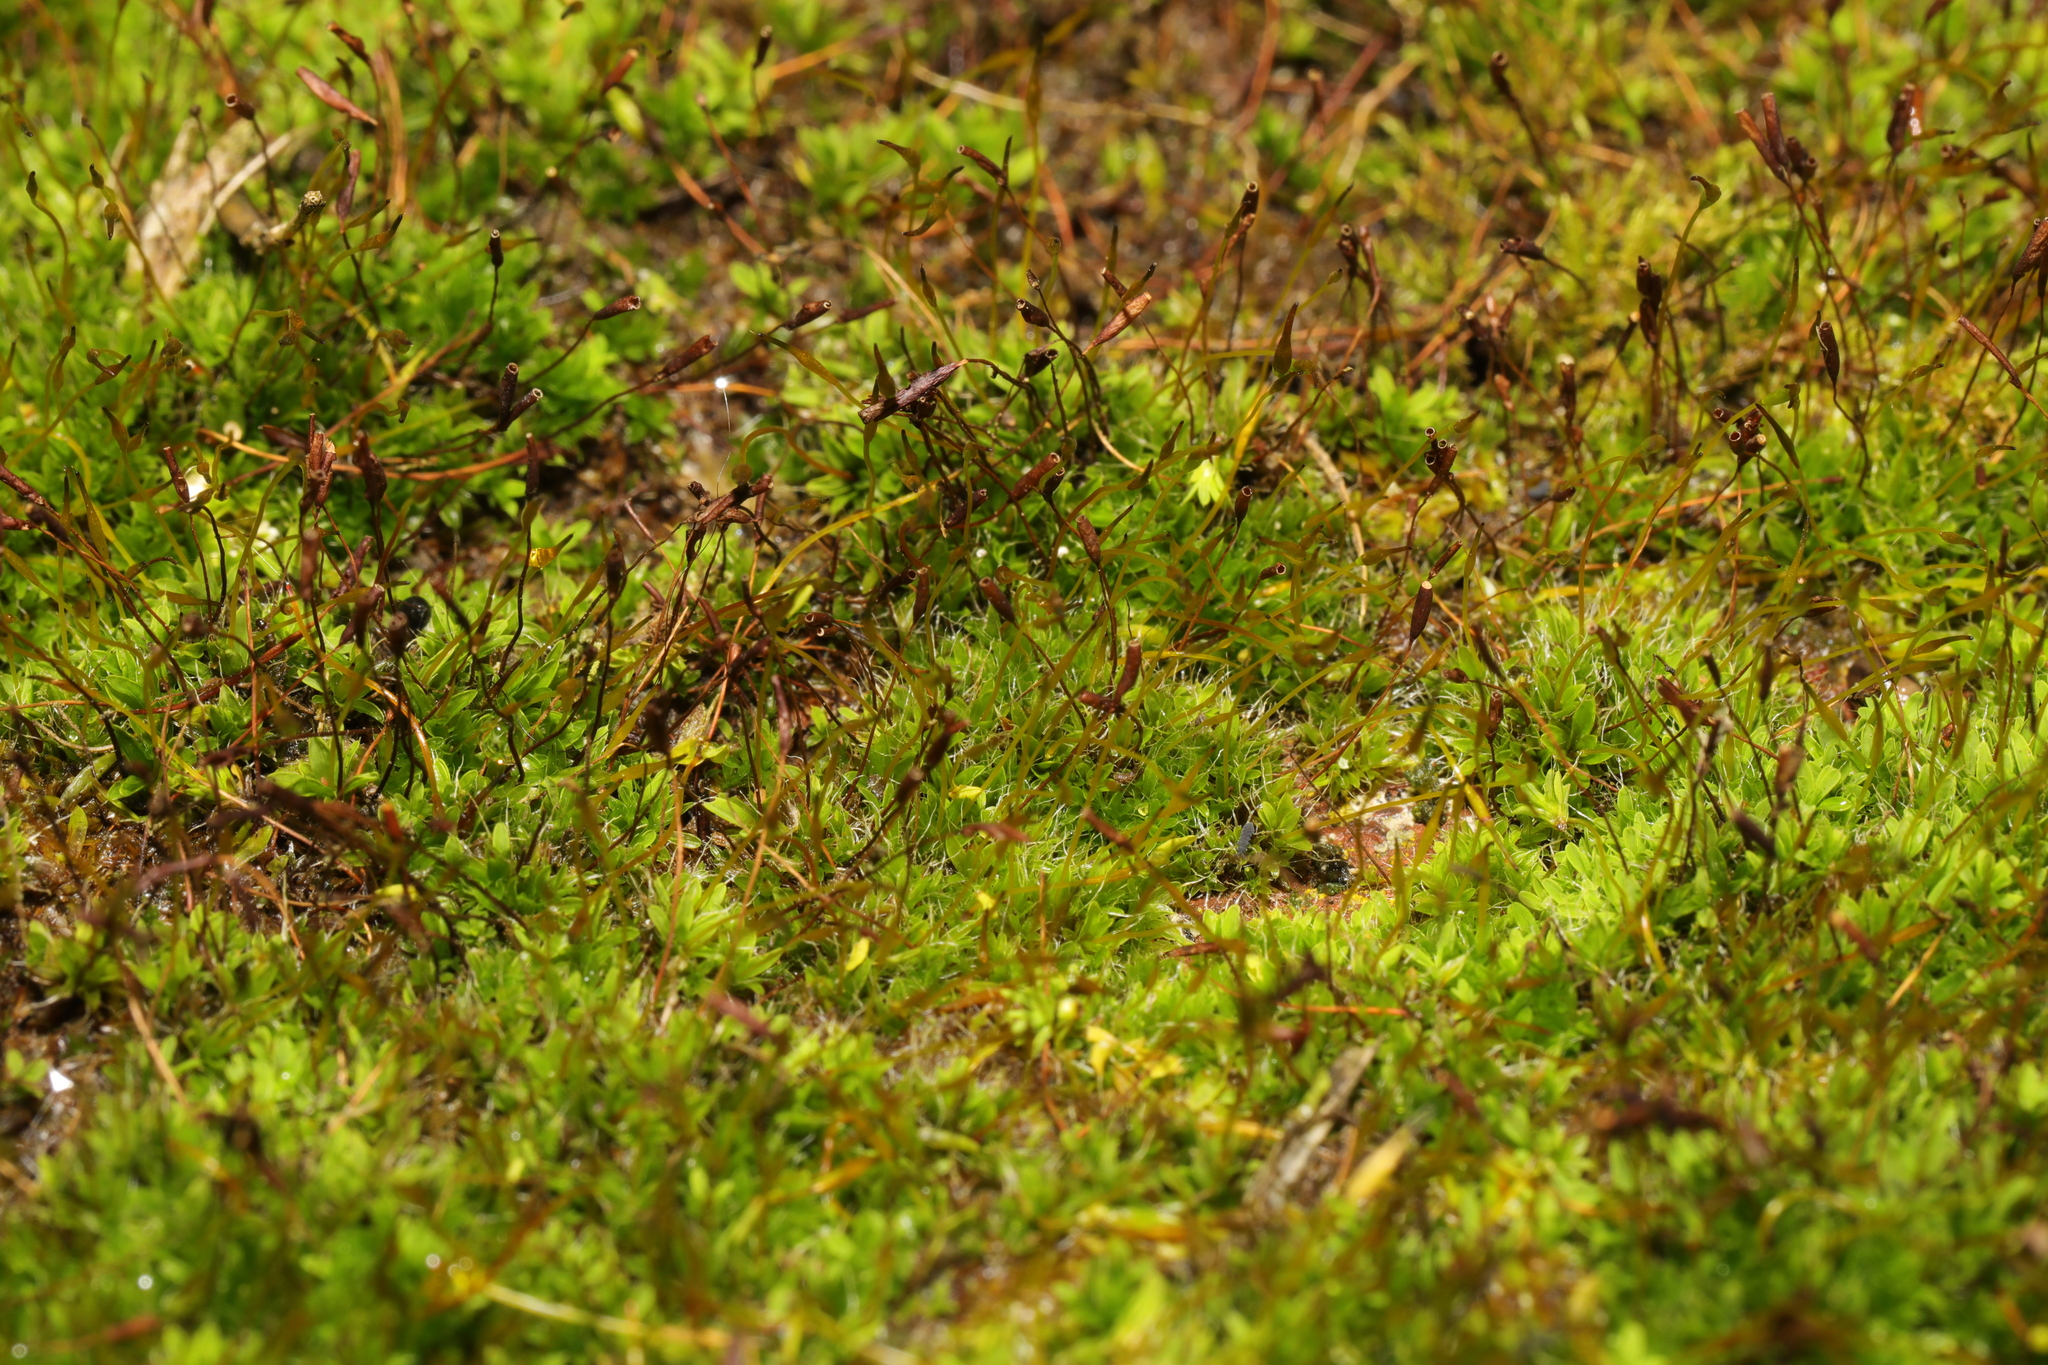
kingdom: Plantae
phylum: Bryophyta
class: Bryopsida
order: Pottiales
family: Pottiaceae
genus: Tortula
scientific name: Tortula muralis
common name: Wall screw-moss
